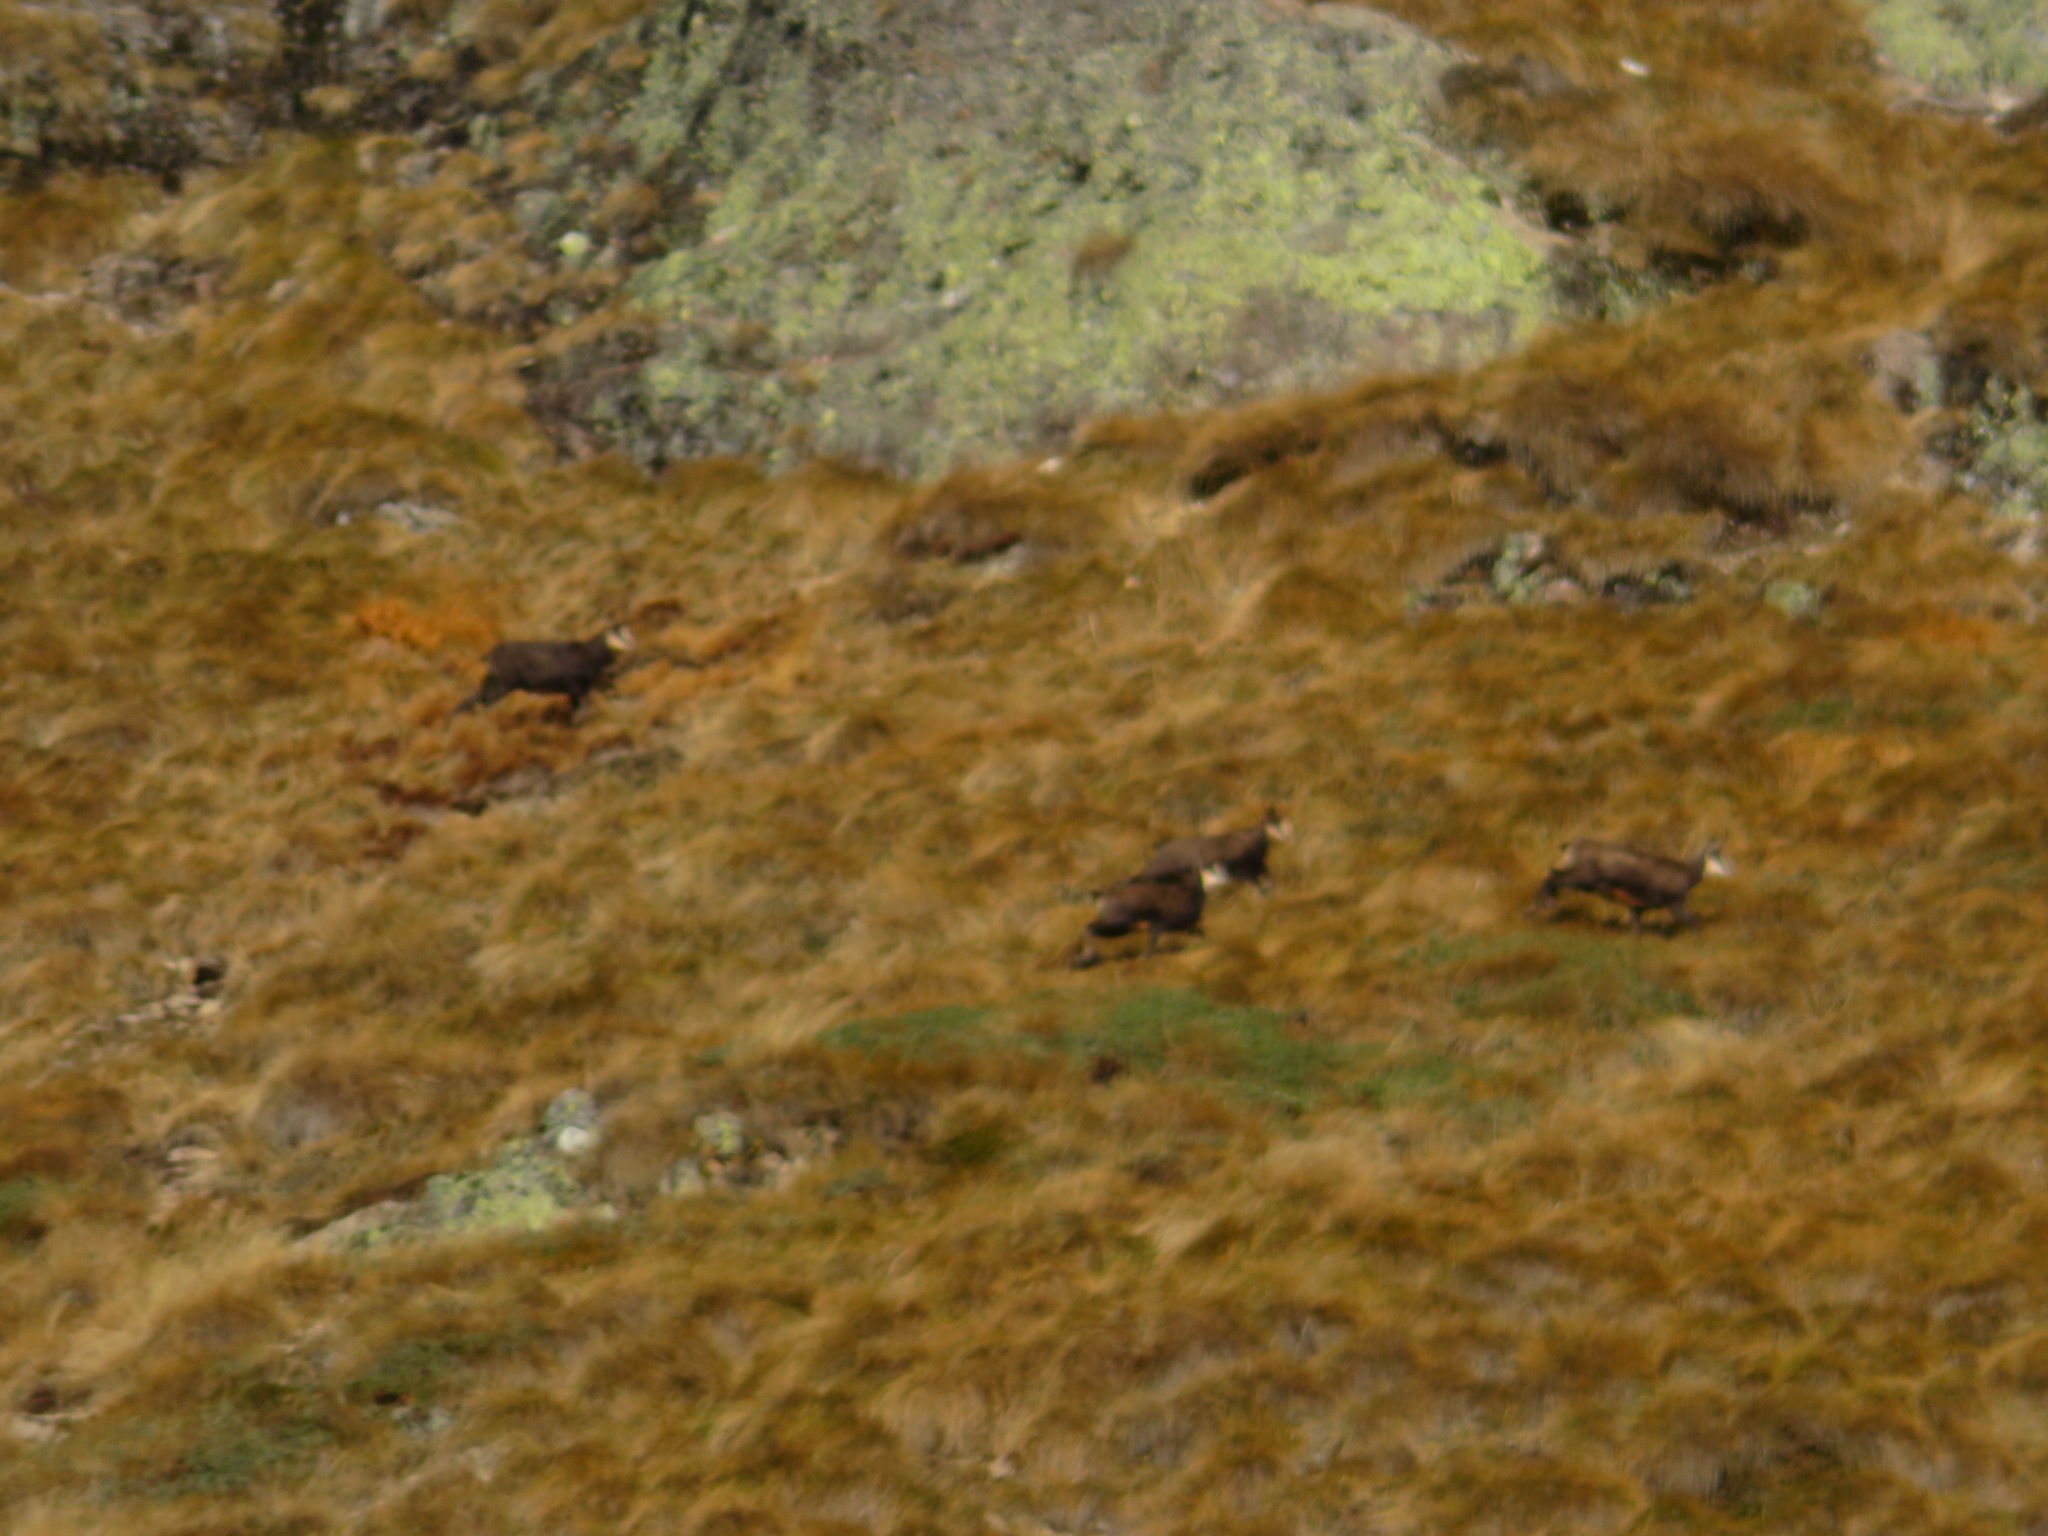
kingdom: Animalia
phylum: Chordata
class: Mammalia
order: Artiodactyla
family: Bovidae
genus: Rupicapra
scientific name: Rupicapra rupicapra
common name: Chamois
